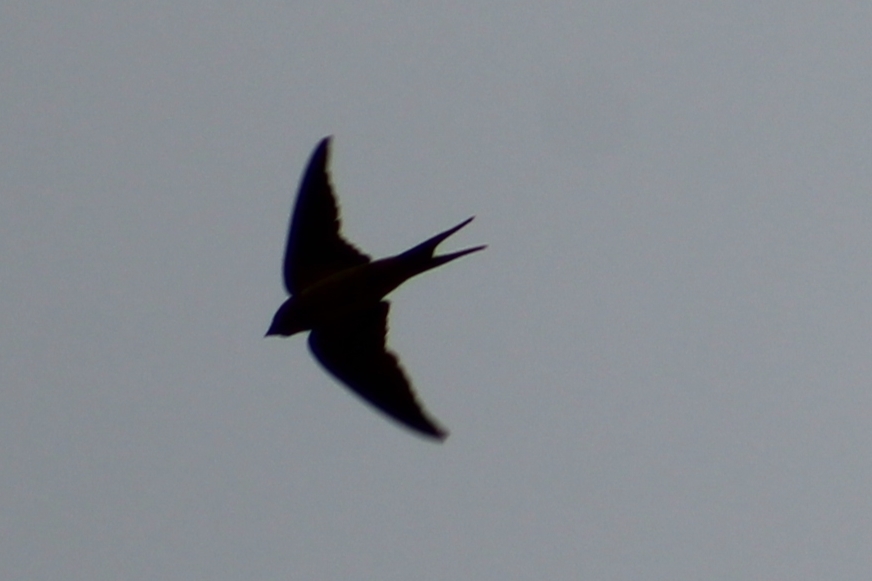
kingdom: Animalia
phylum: Chordata
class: Aves
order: Passeriformes
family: Hirundinidae
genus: Hirundo
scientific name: Hirundo rustica
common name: Barn swallow
